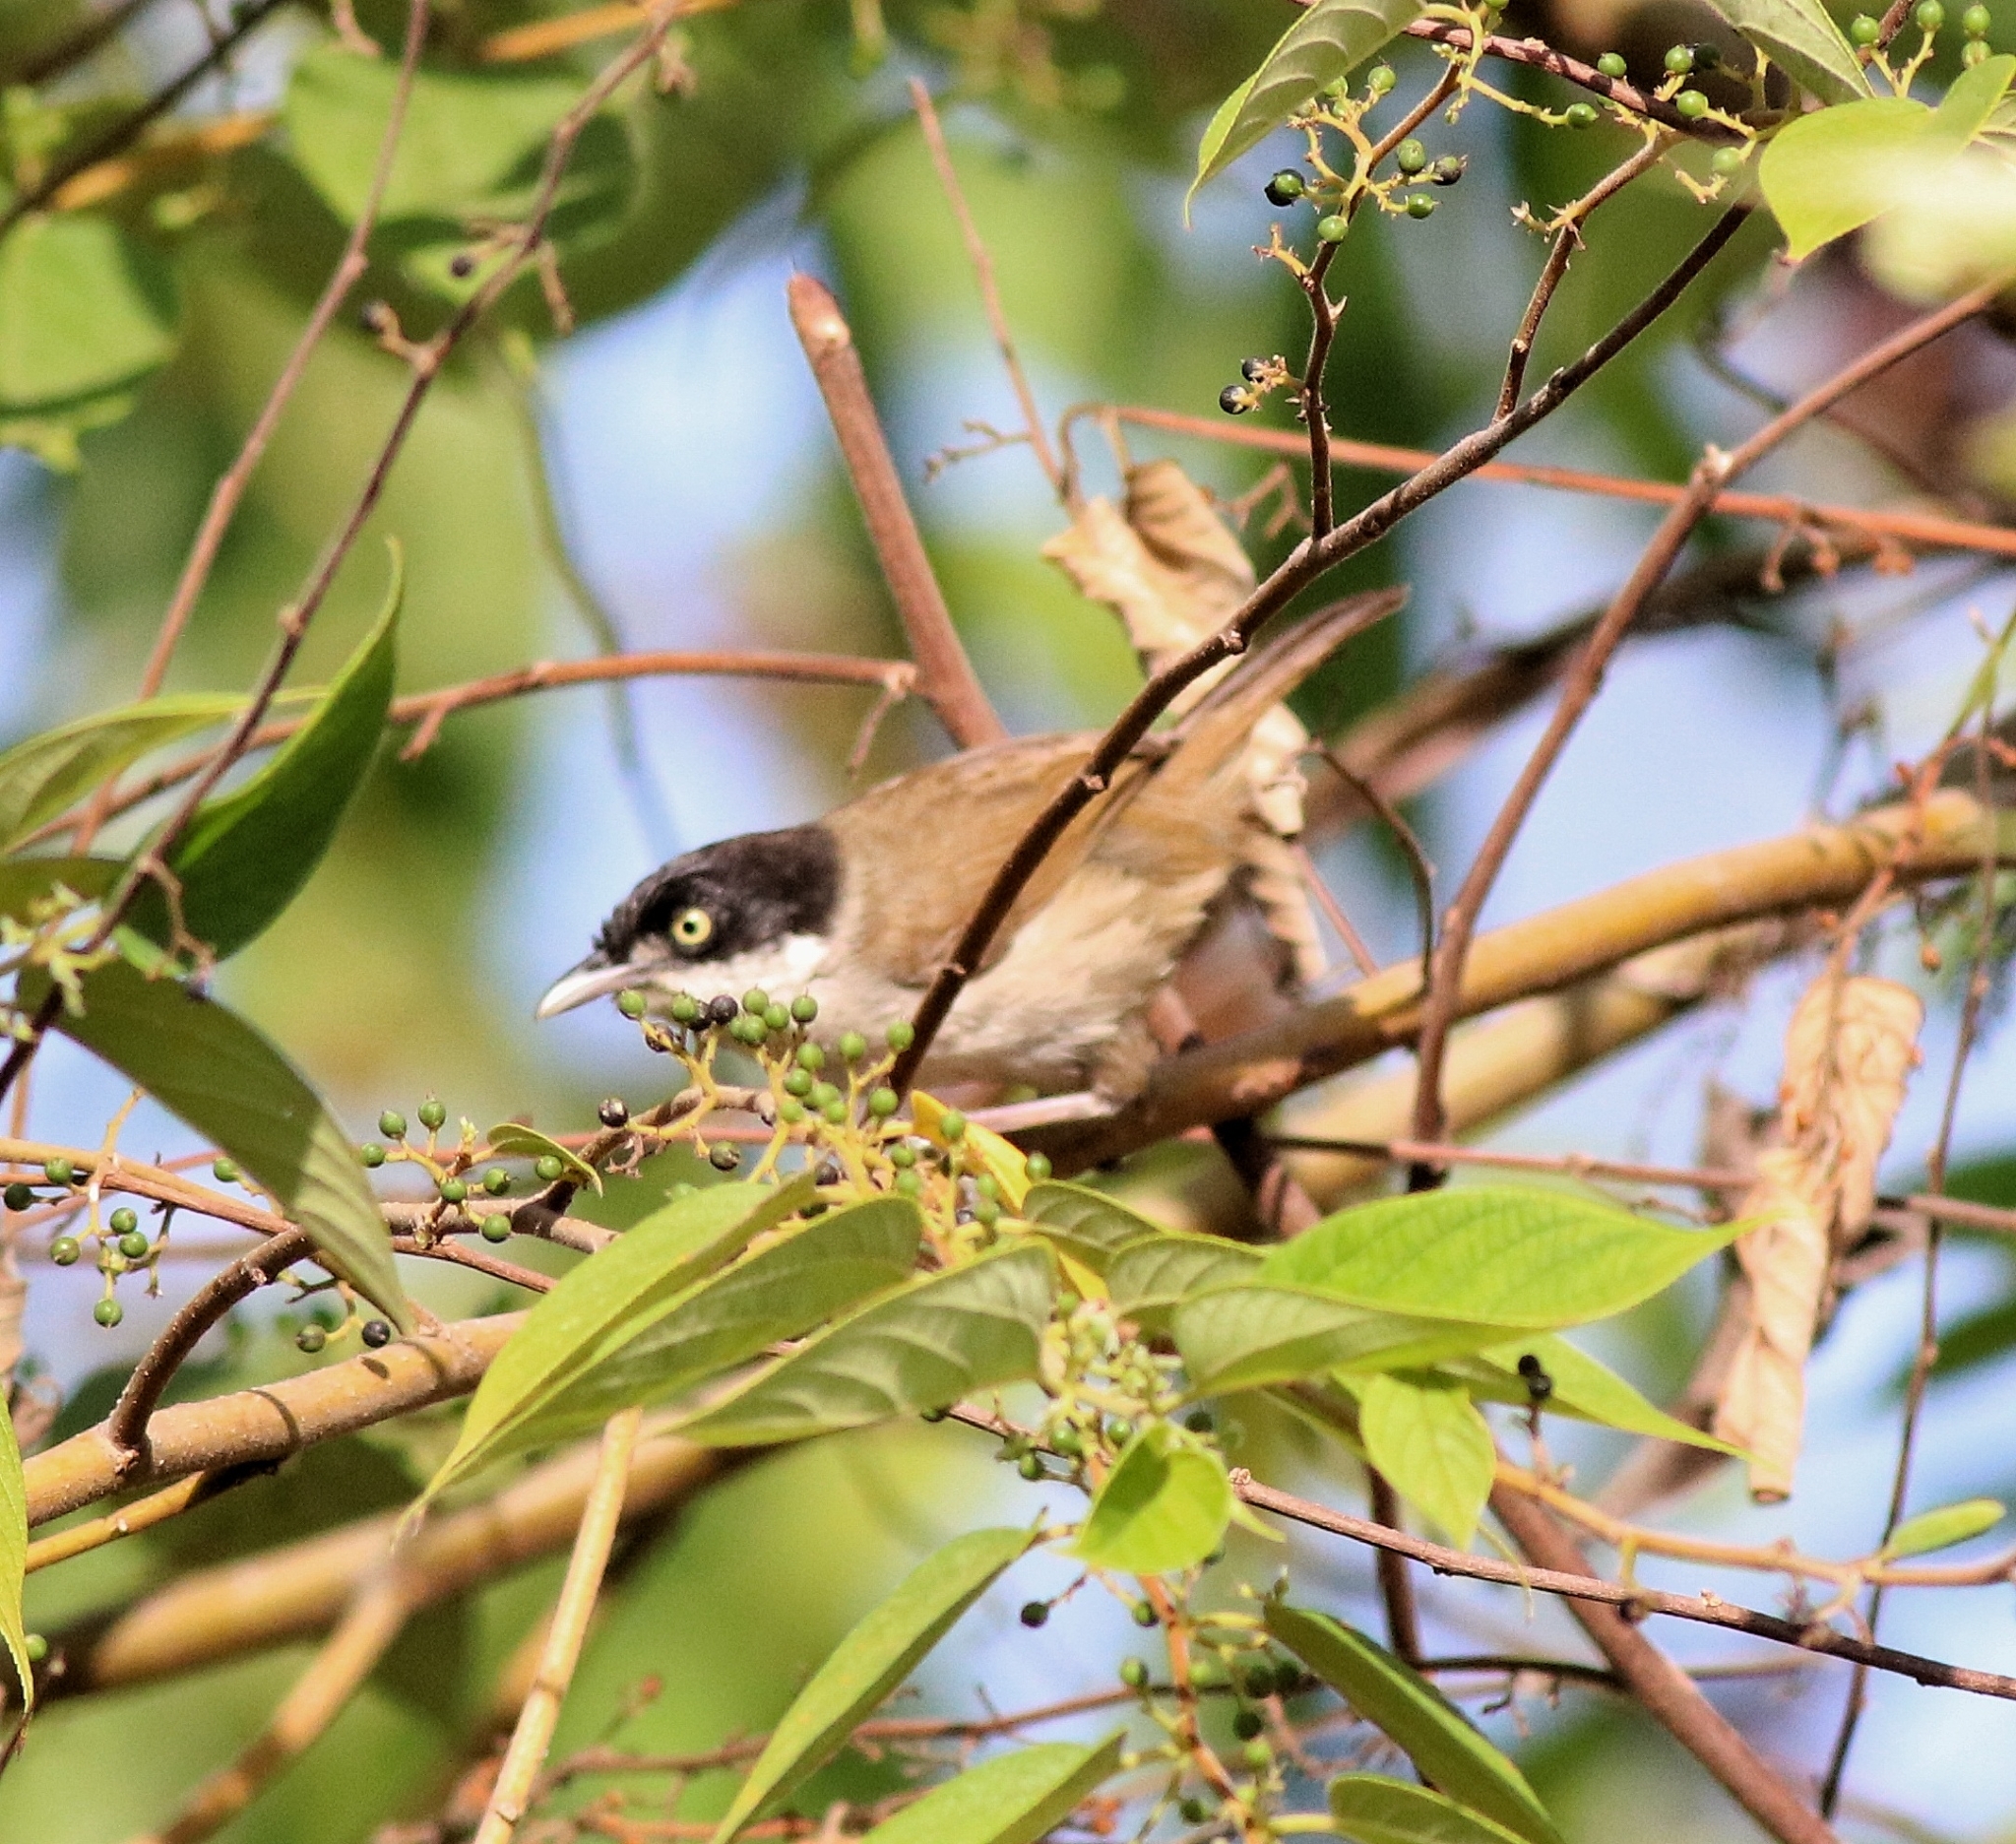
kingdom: Animalia
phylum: Chordata
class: Aves
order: Passeriformes
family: Timaliidae
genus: Rhopocichla
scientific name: Rhopocichla atriceps
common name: Dark-fronted babbler
